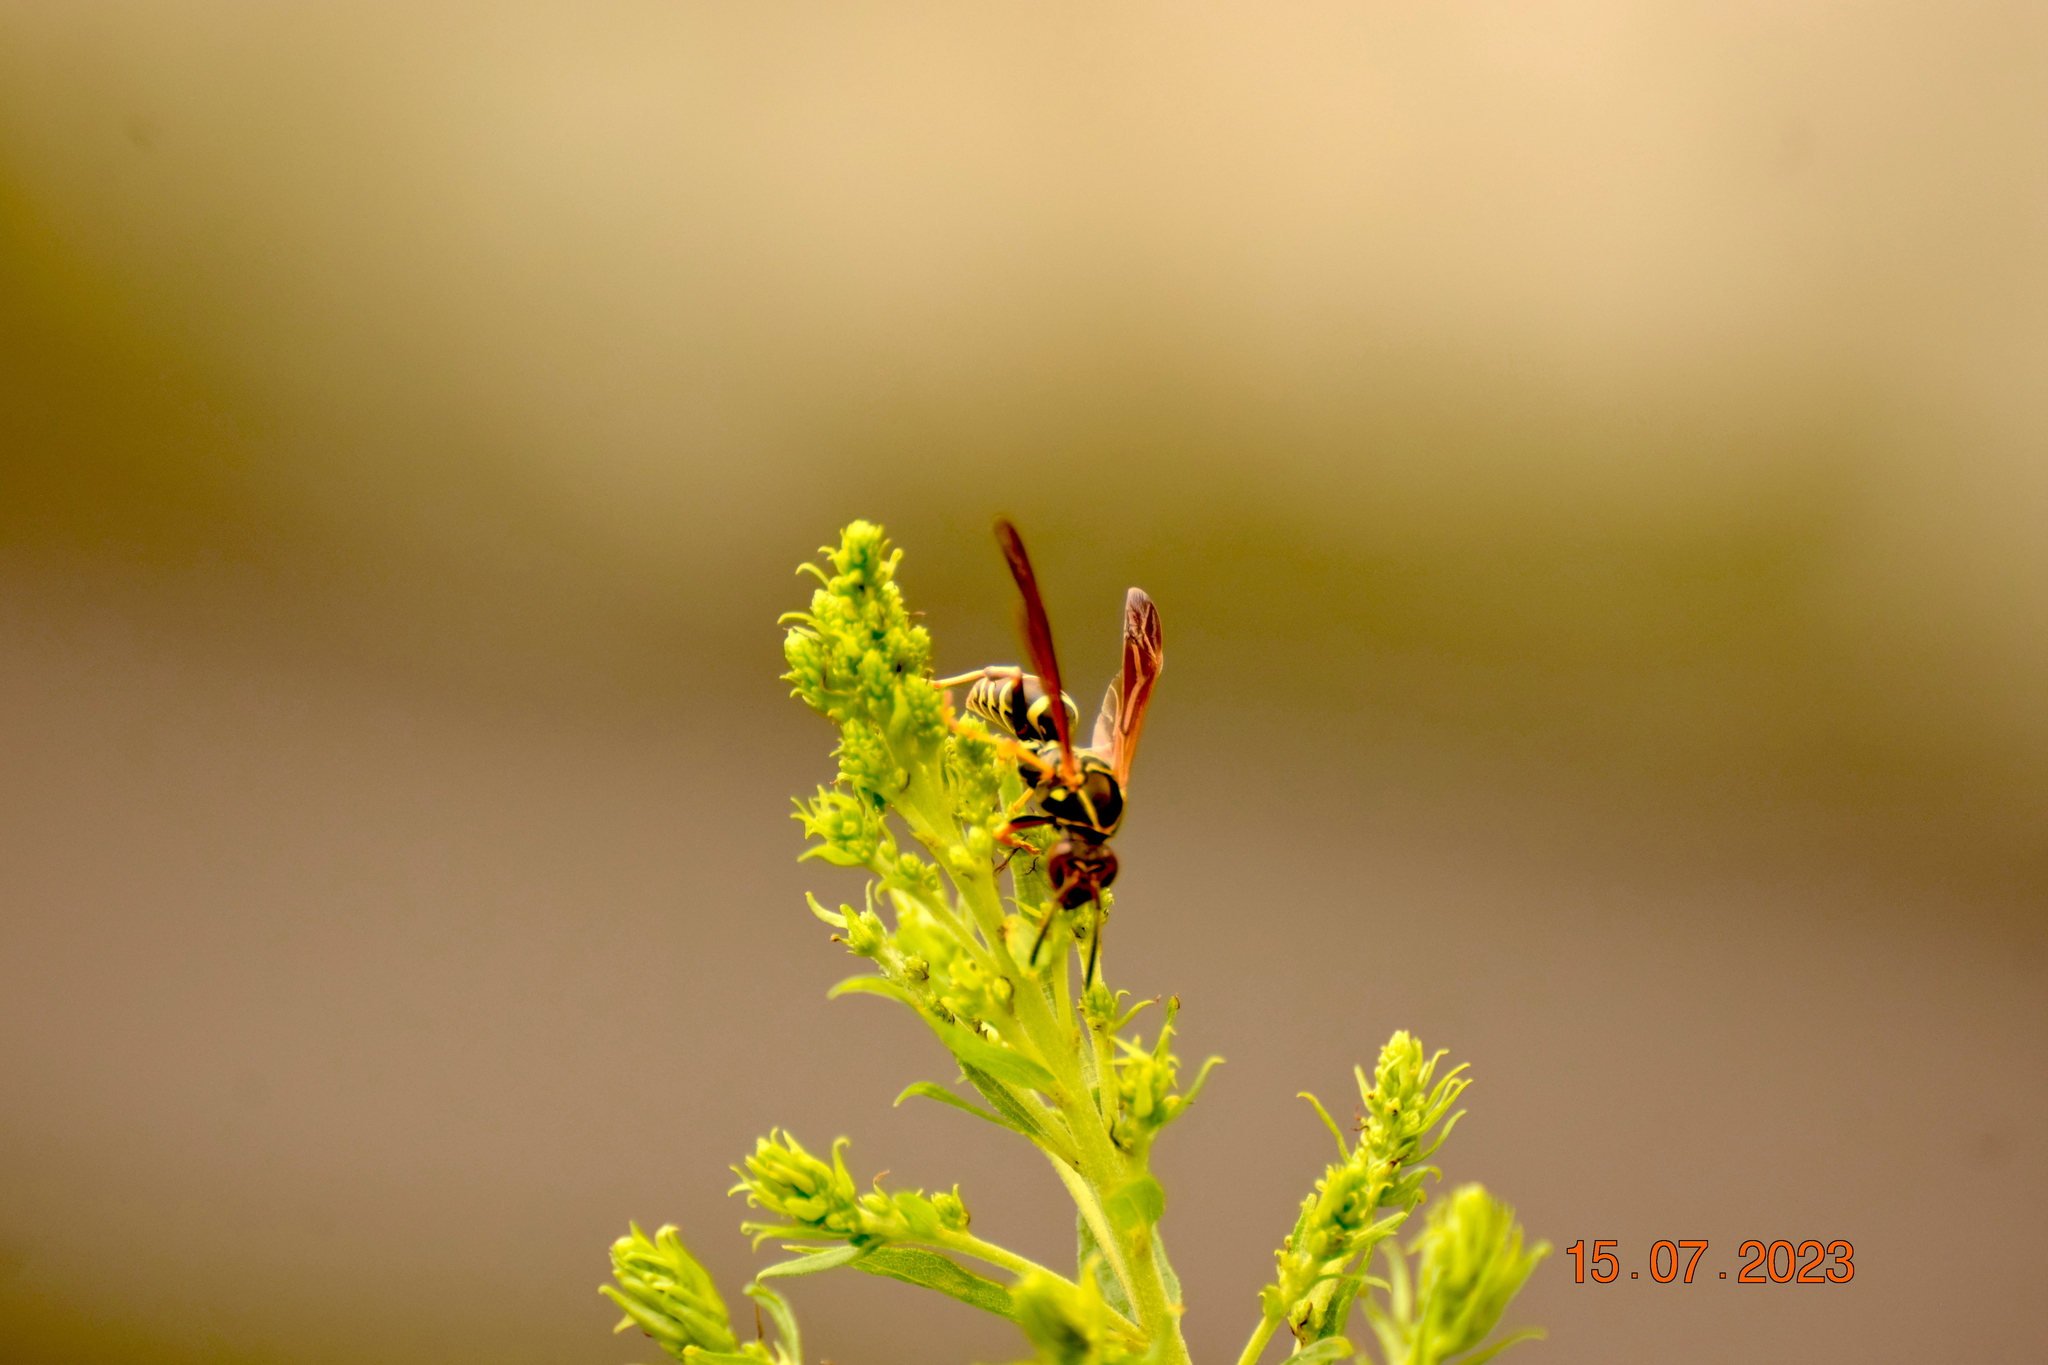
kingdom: Animalia
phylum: Arthropoda
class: Insecta
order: Hymenoptera
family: Eumenidae
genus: Polistes
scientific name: Polistes fuscatus
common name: Dark paper wasp
